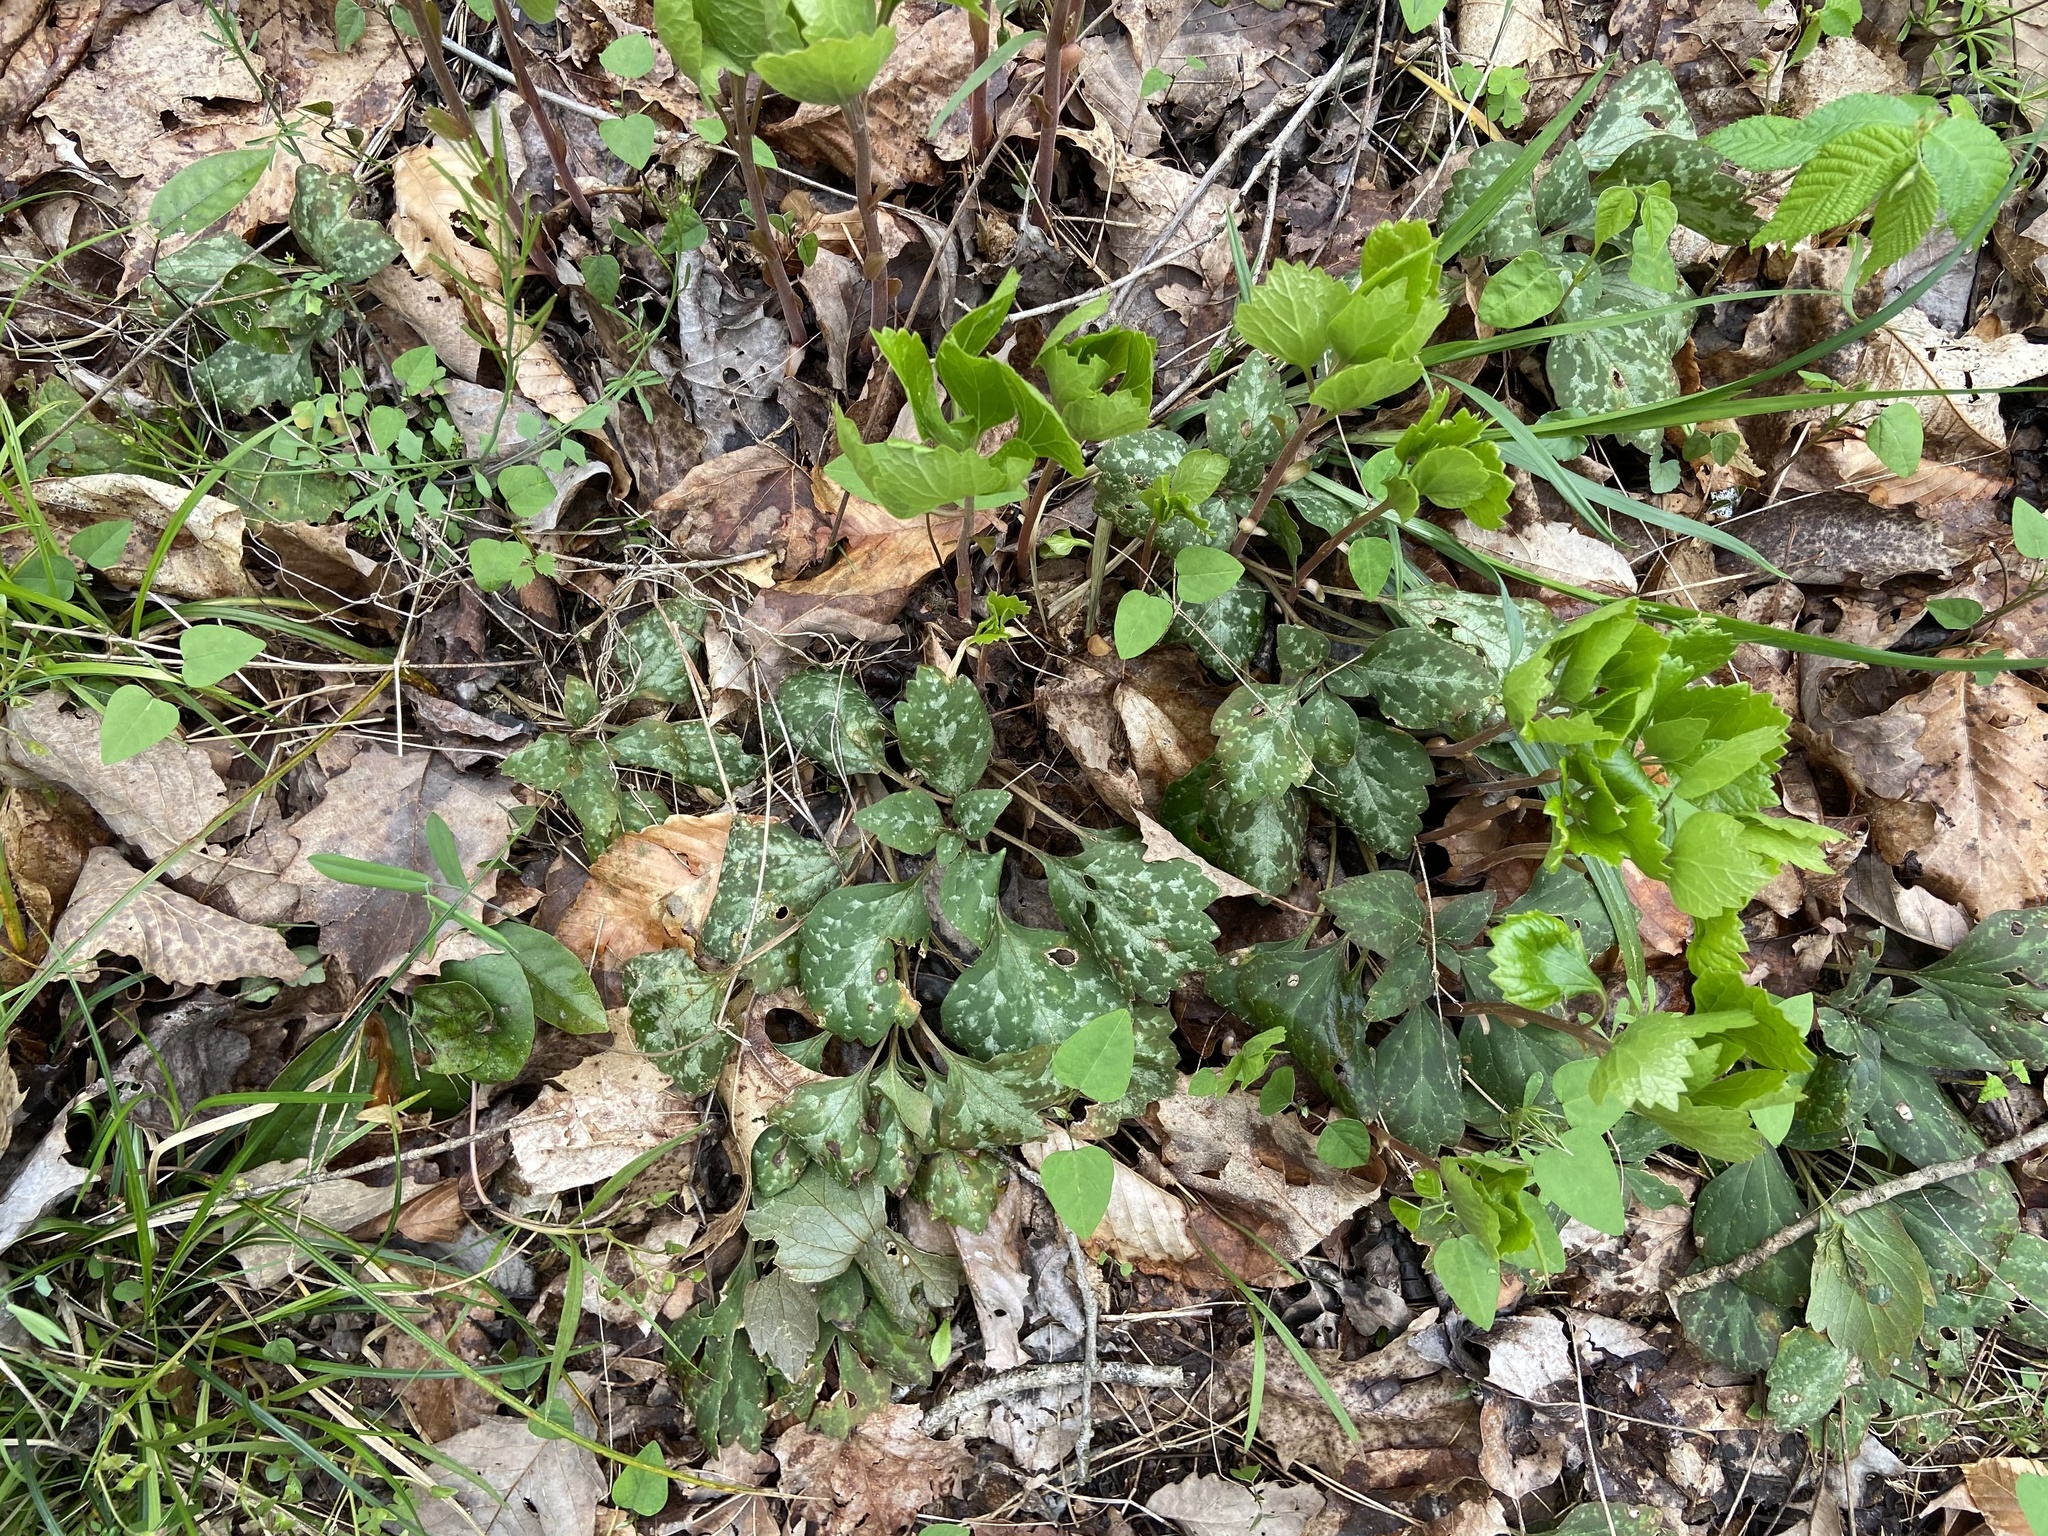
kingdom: Plantae
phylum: Tracheophyta
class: Magnoliopsida
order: Buxales
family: Buxaceae
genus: Pachysandra
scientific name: Pachysandra procumbens
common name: Mountain-spurge
